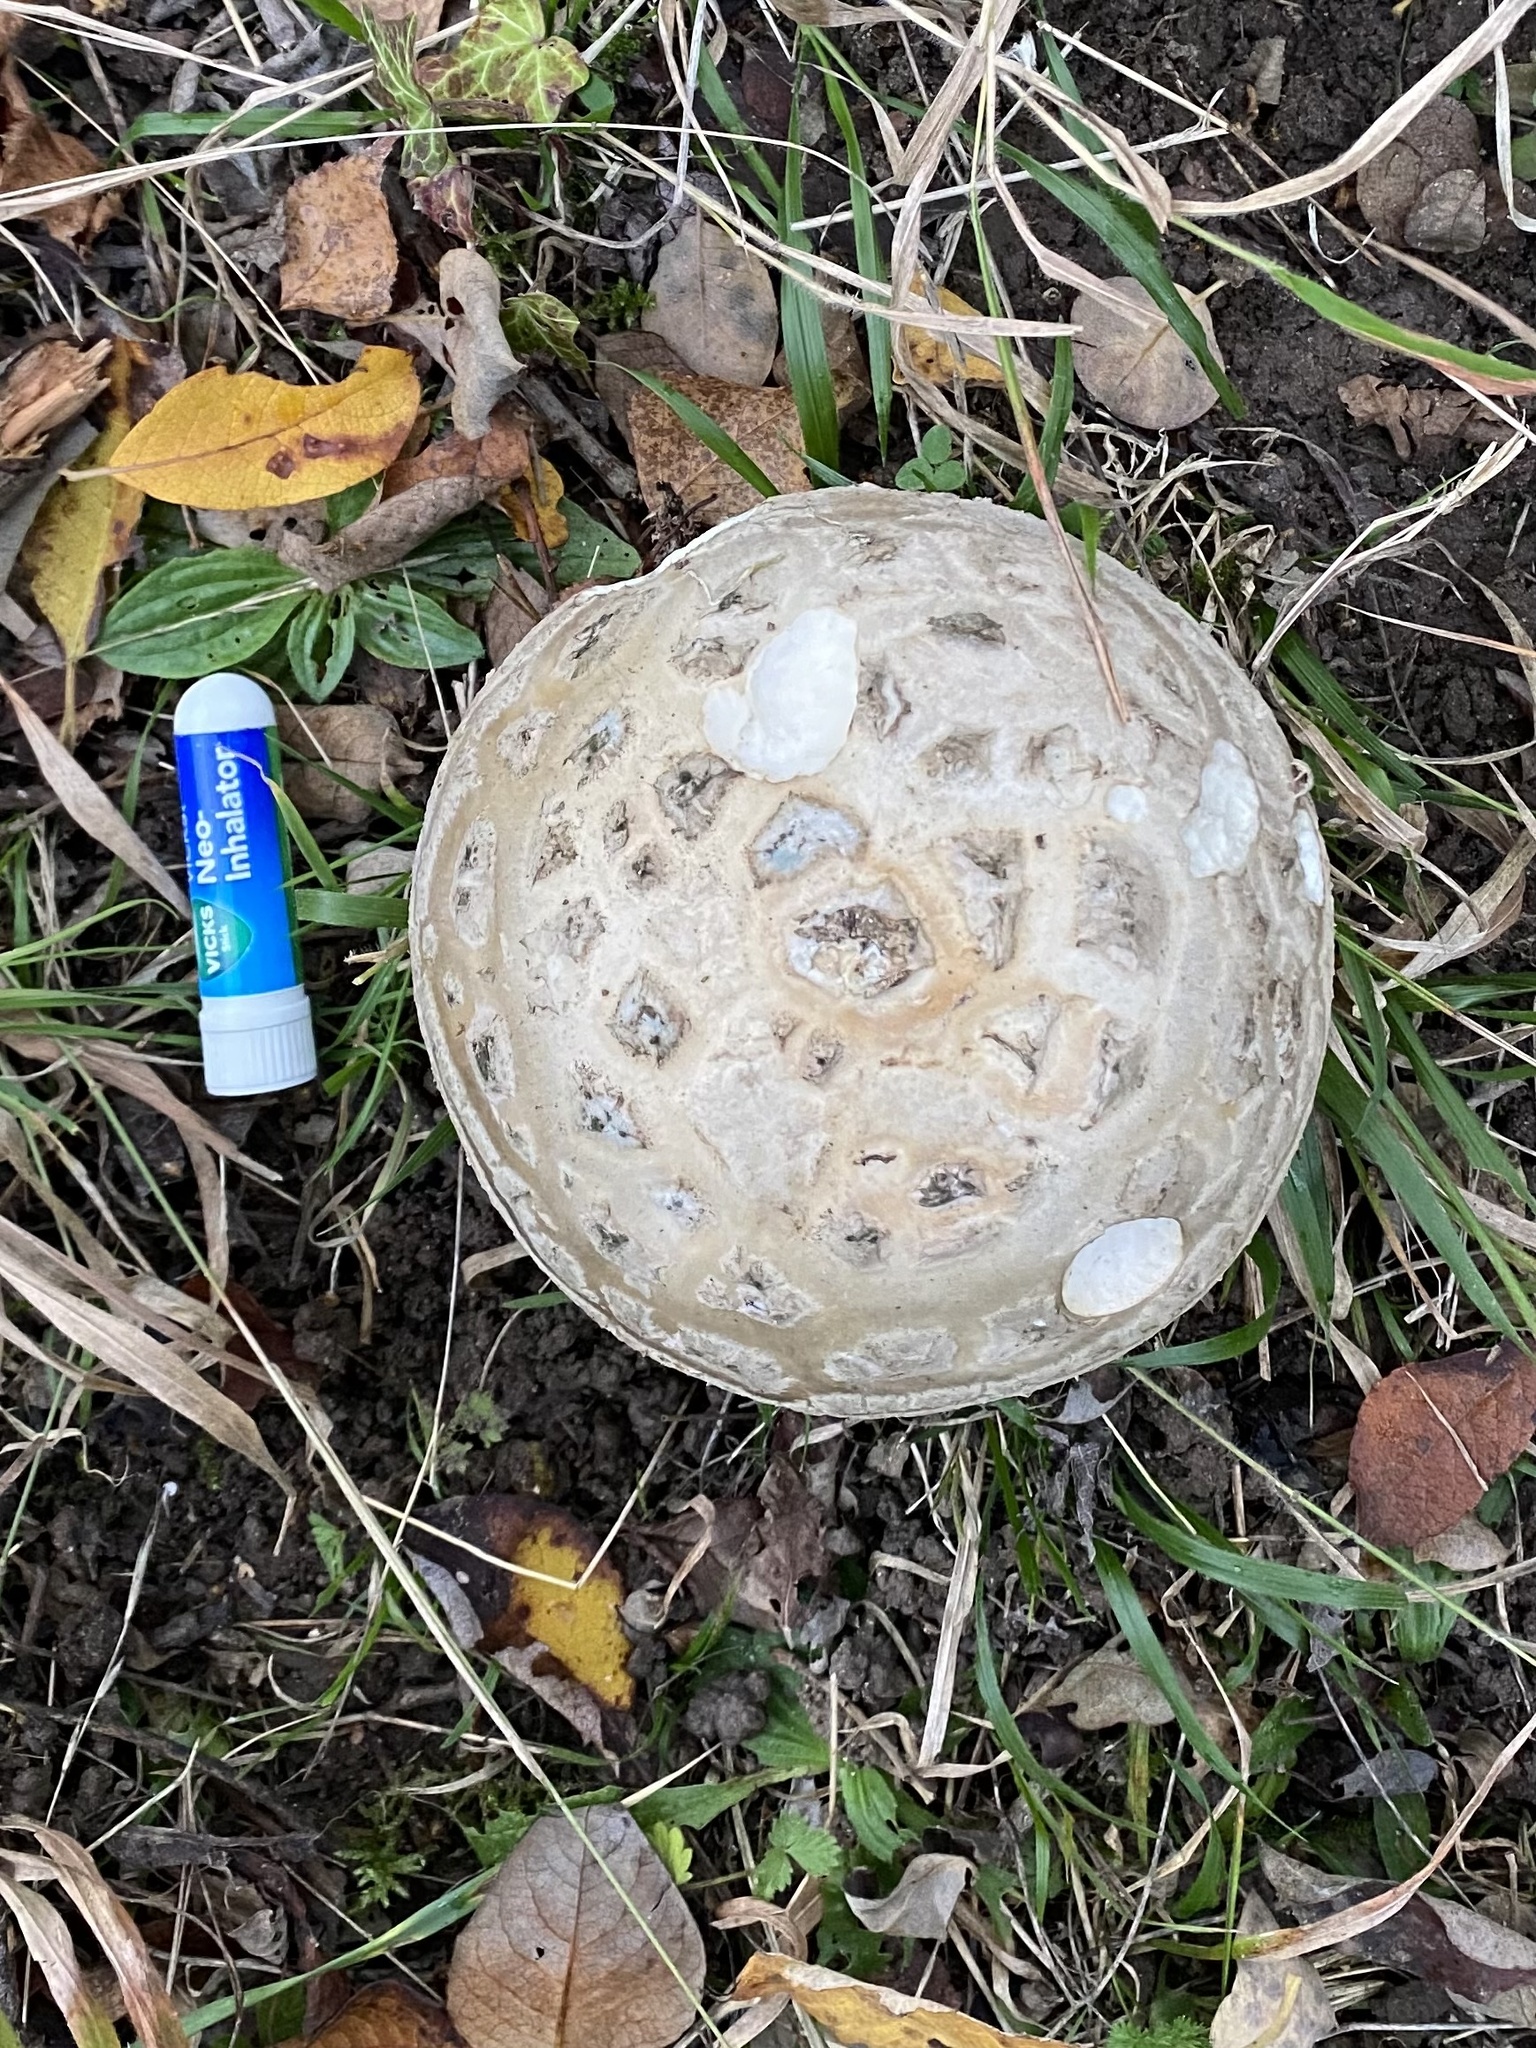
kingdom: Fungi
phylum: Basidiomycota
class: Agaricomycetes
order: Agaricales
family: Amanitaceae
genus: Amanita
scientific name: Amanita strobiliformis
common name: Warted amanita
